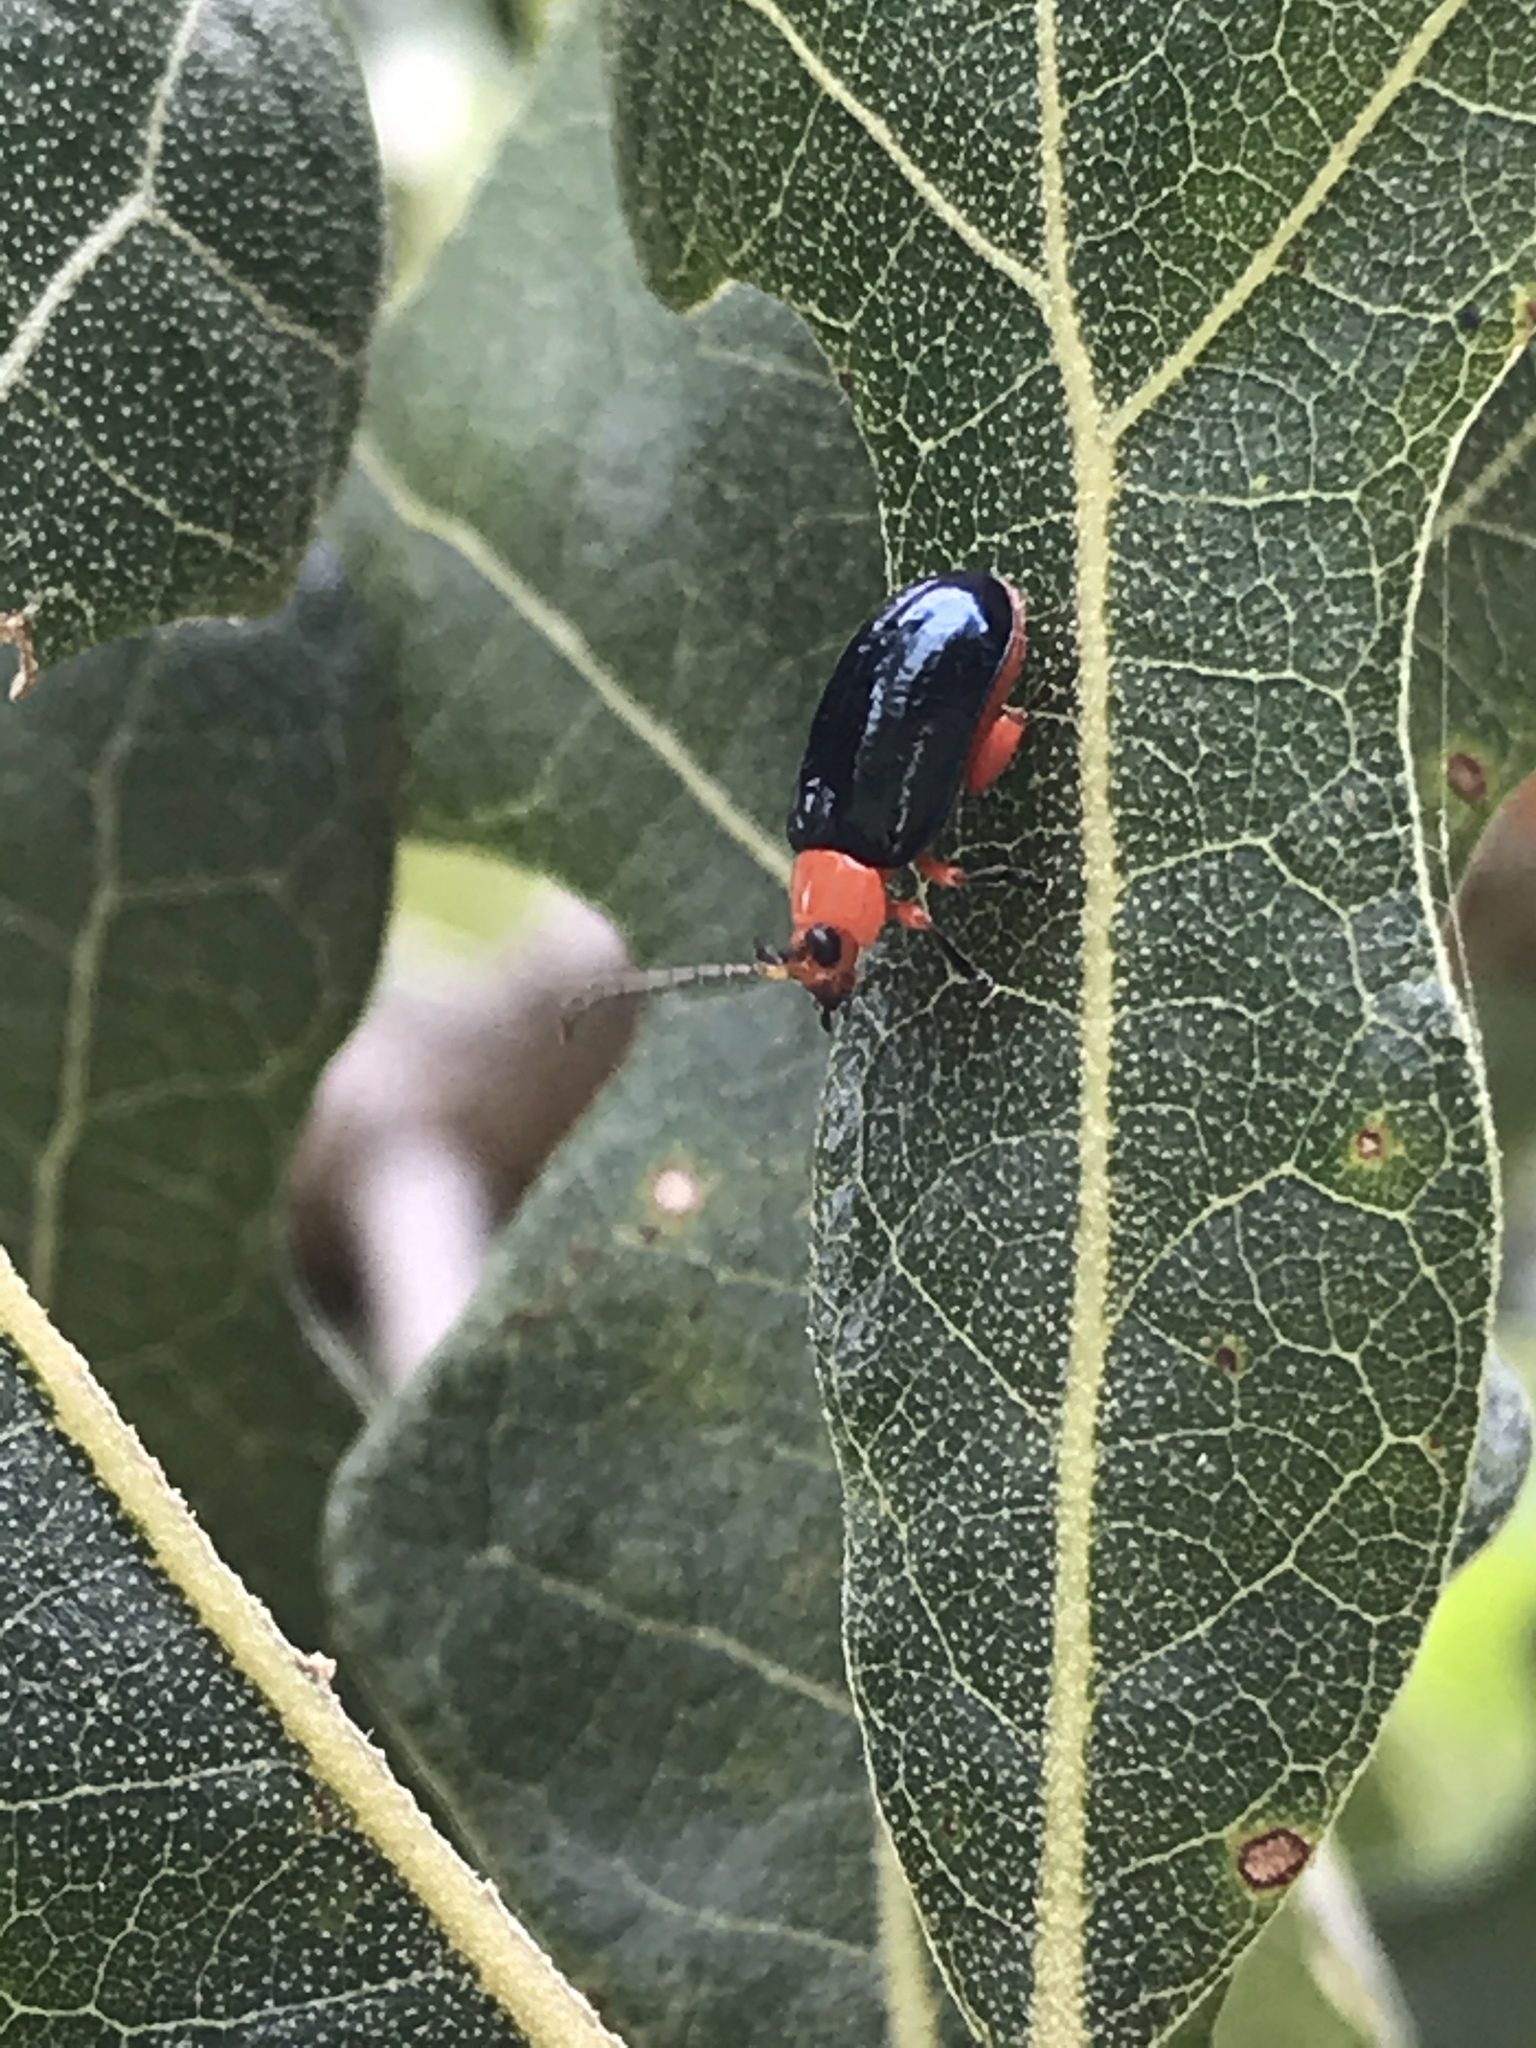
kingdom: Animalia
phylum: Arthropoda
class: Insecta
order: Coleoptera
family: Chrysomelidae
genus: Asphaera
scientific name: Asphaera lustrans
